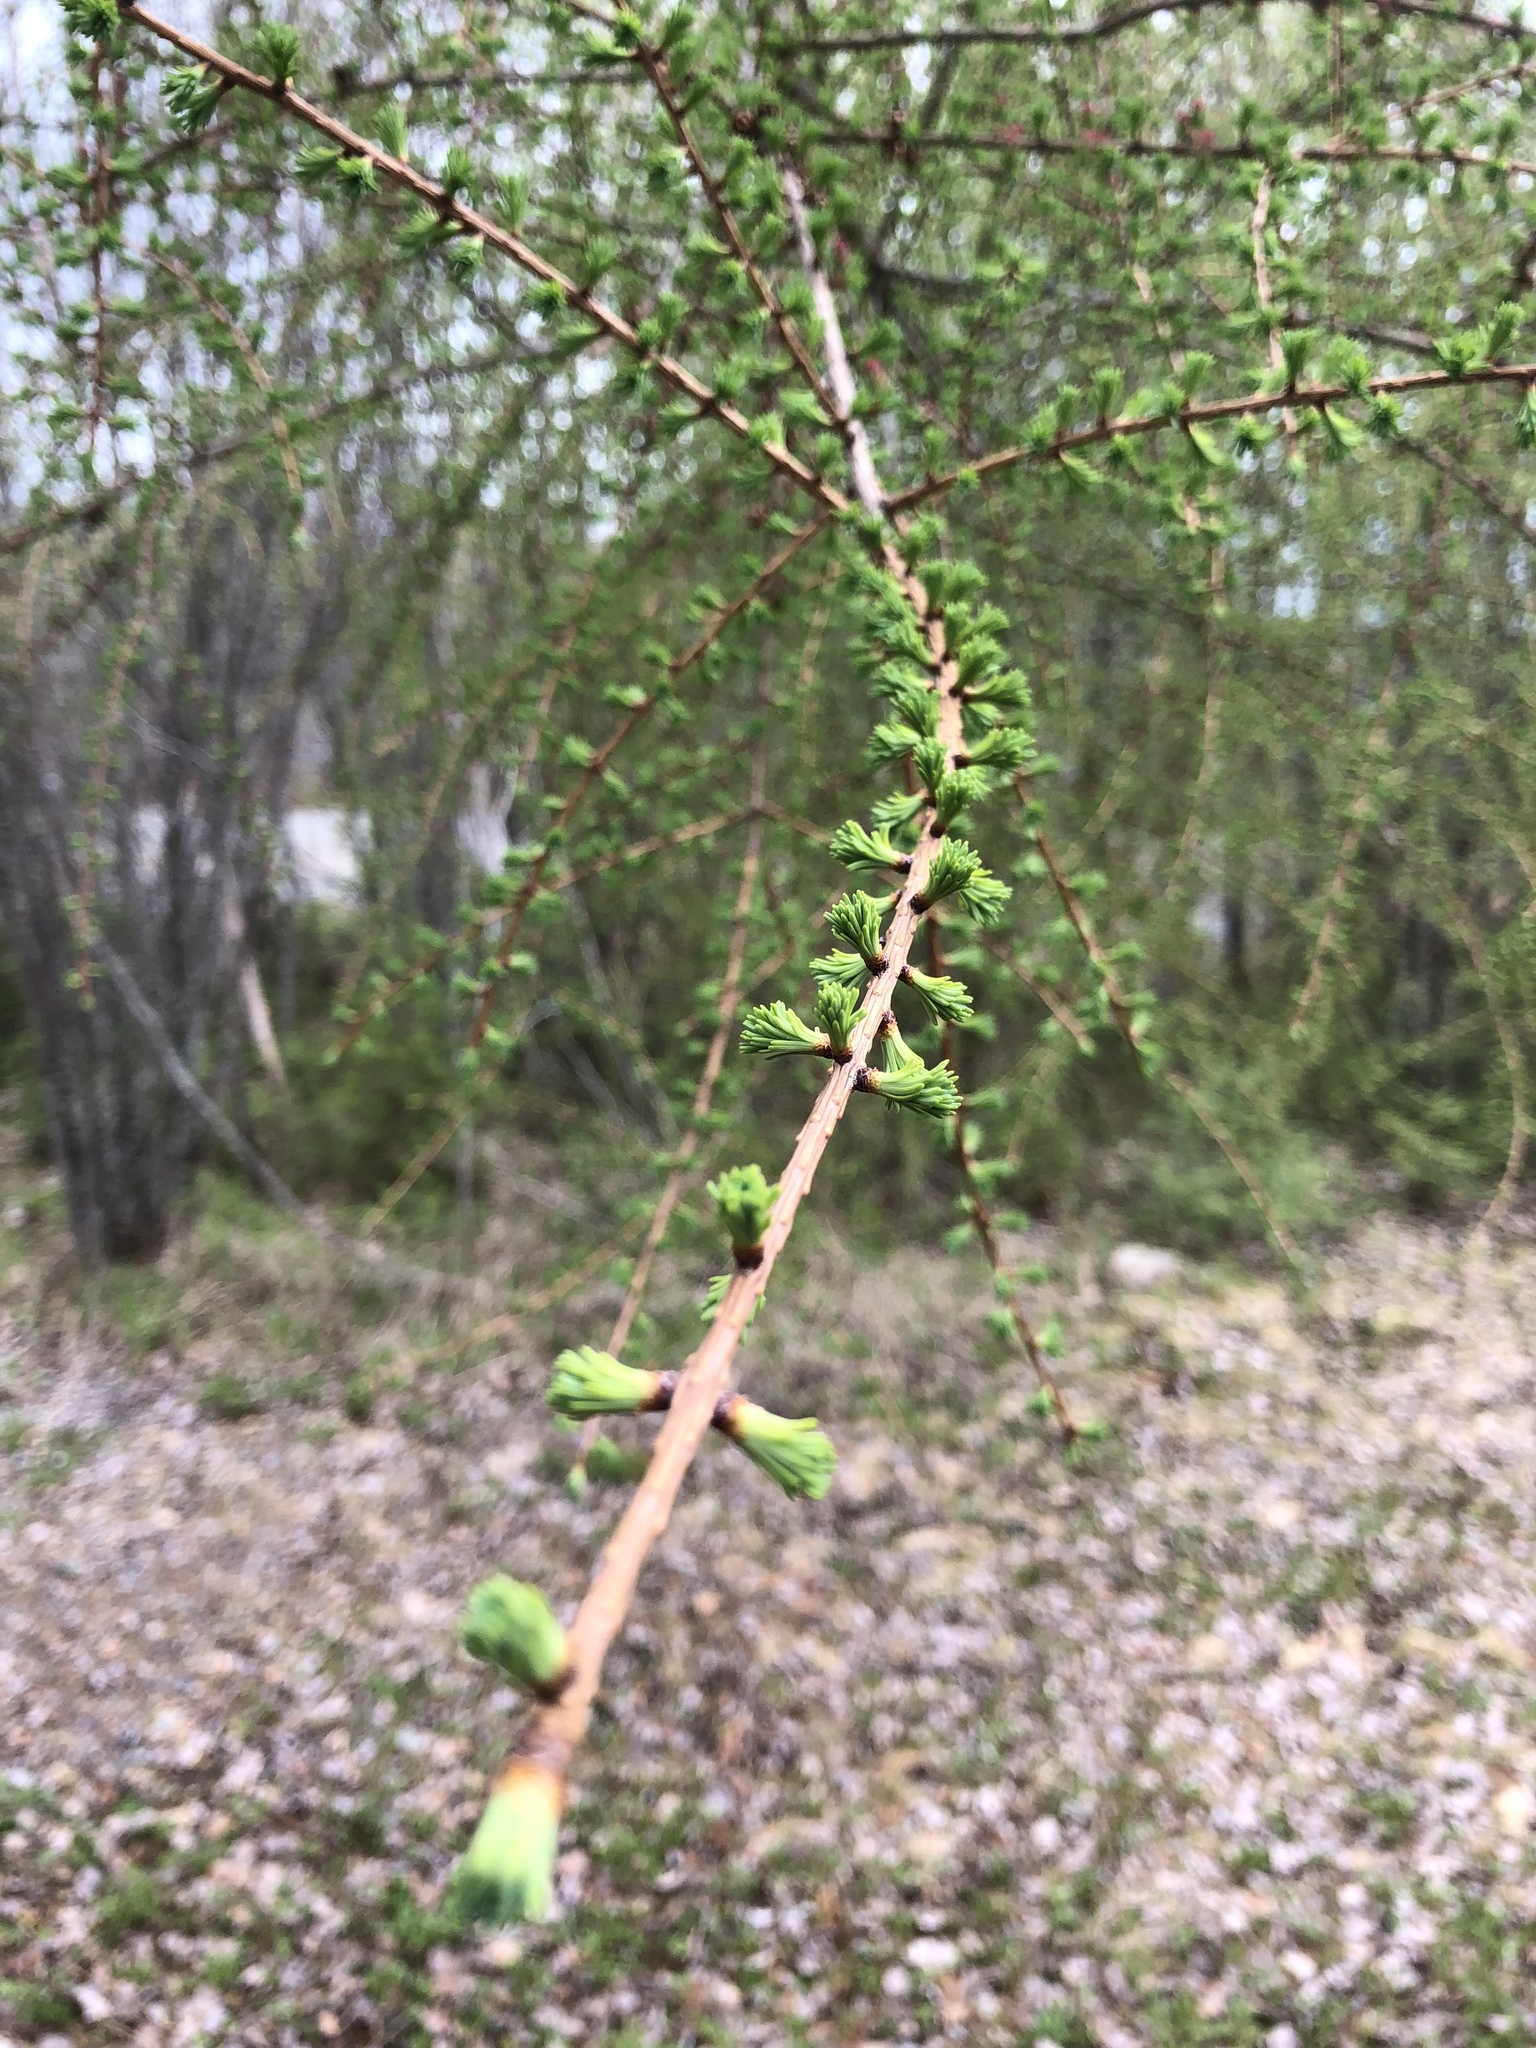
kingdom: Plantae
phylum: Tracheophyta
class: Pinopsida
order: Pinales
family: Pinaceae
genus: Larix
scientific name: Larix laricina
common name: American larch
